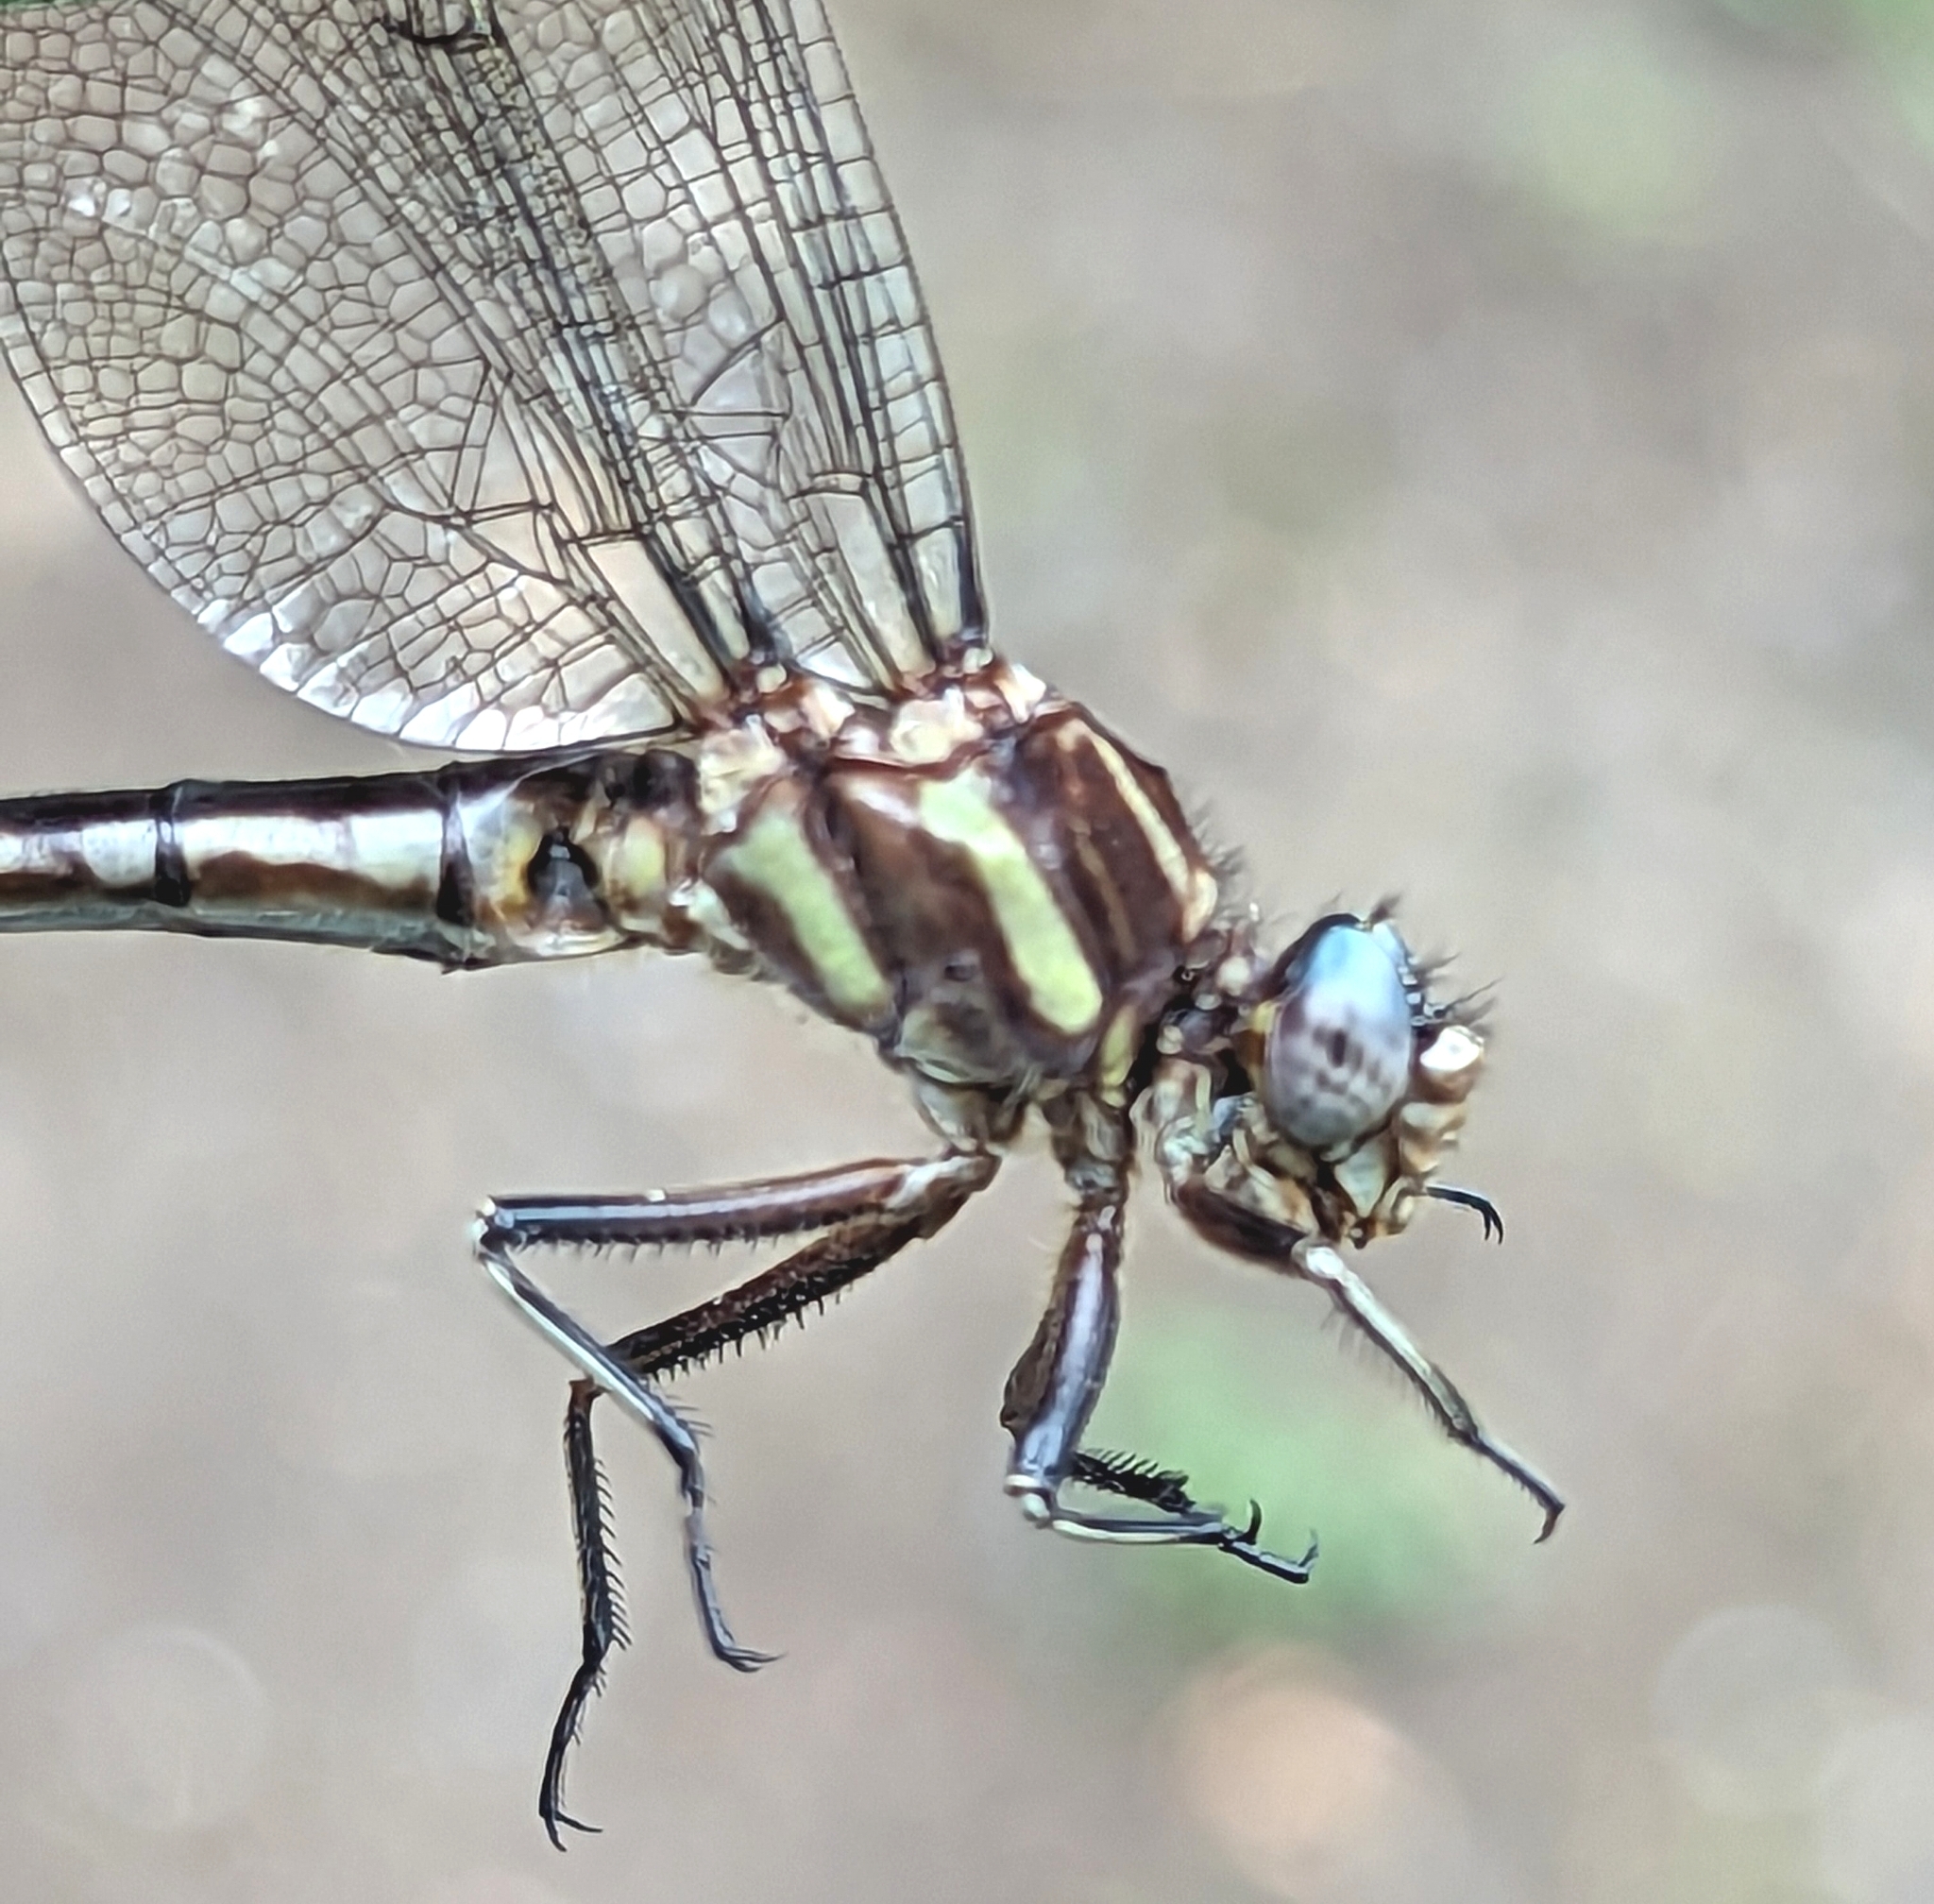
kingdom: Animalia
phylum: Arthropoda
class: Insecta
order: Odonata
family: Gomphidae
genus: Phanogomphus
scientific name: Phanogomphus exilis
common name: Lancet clubtail
